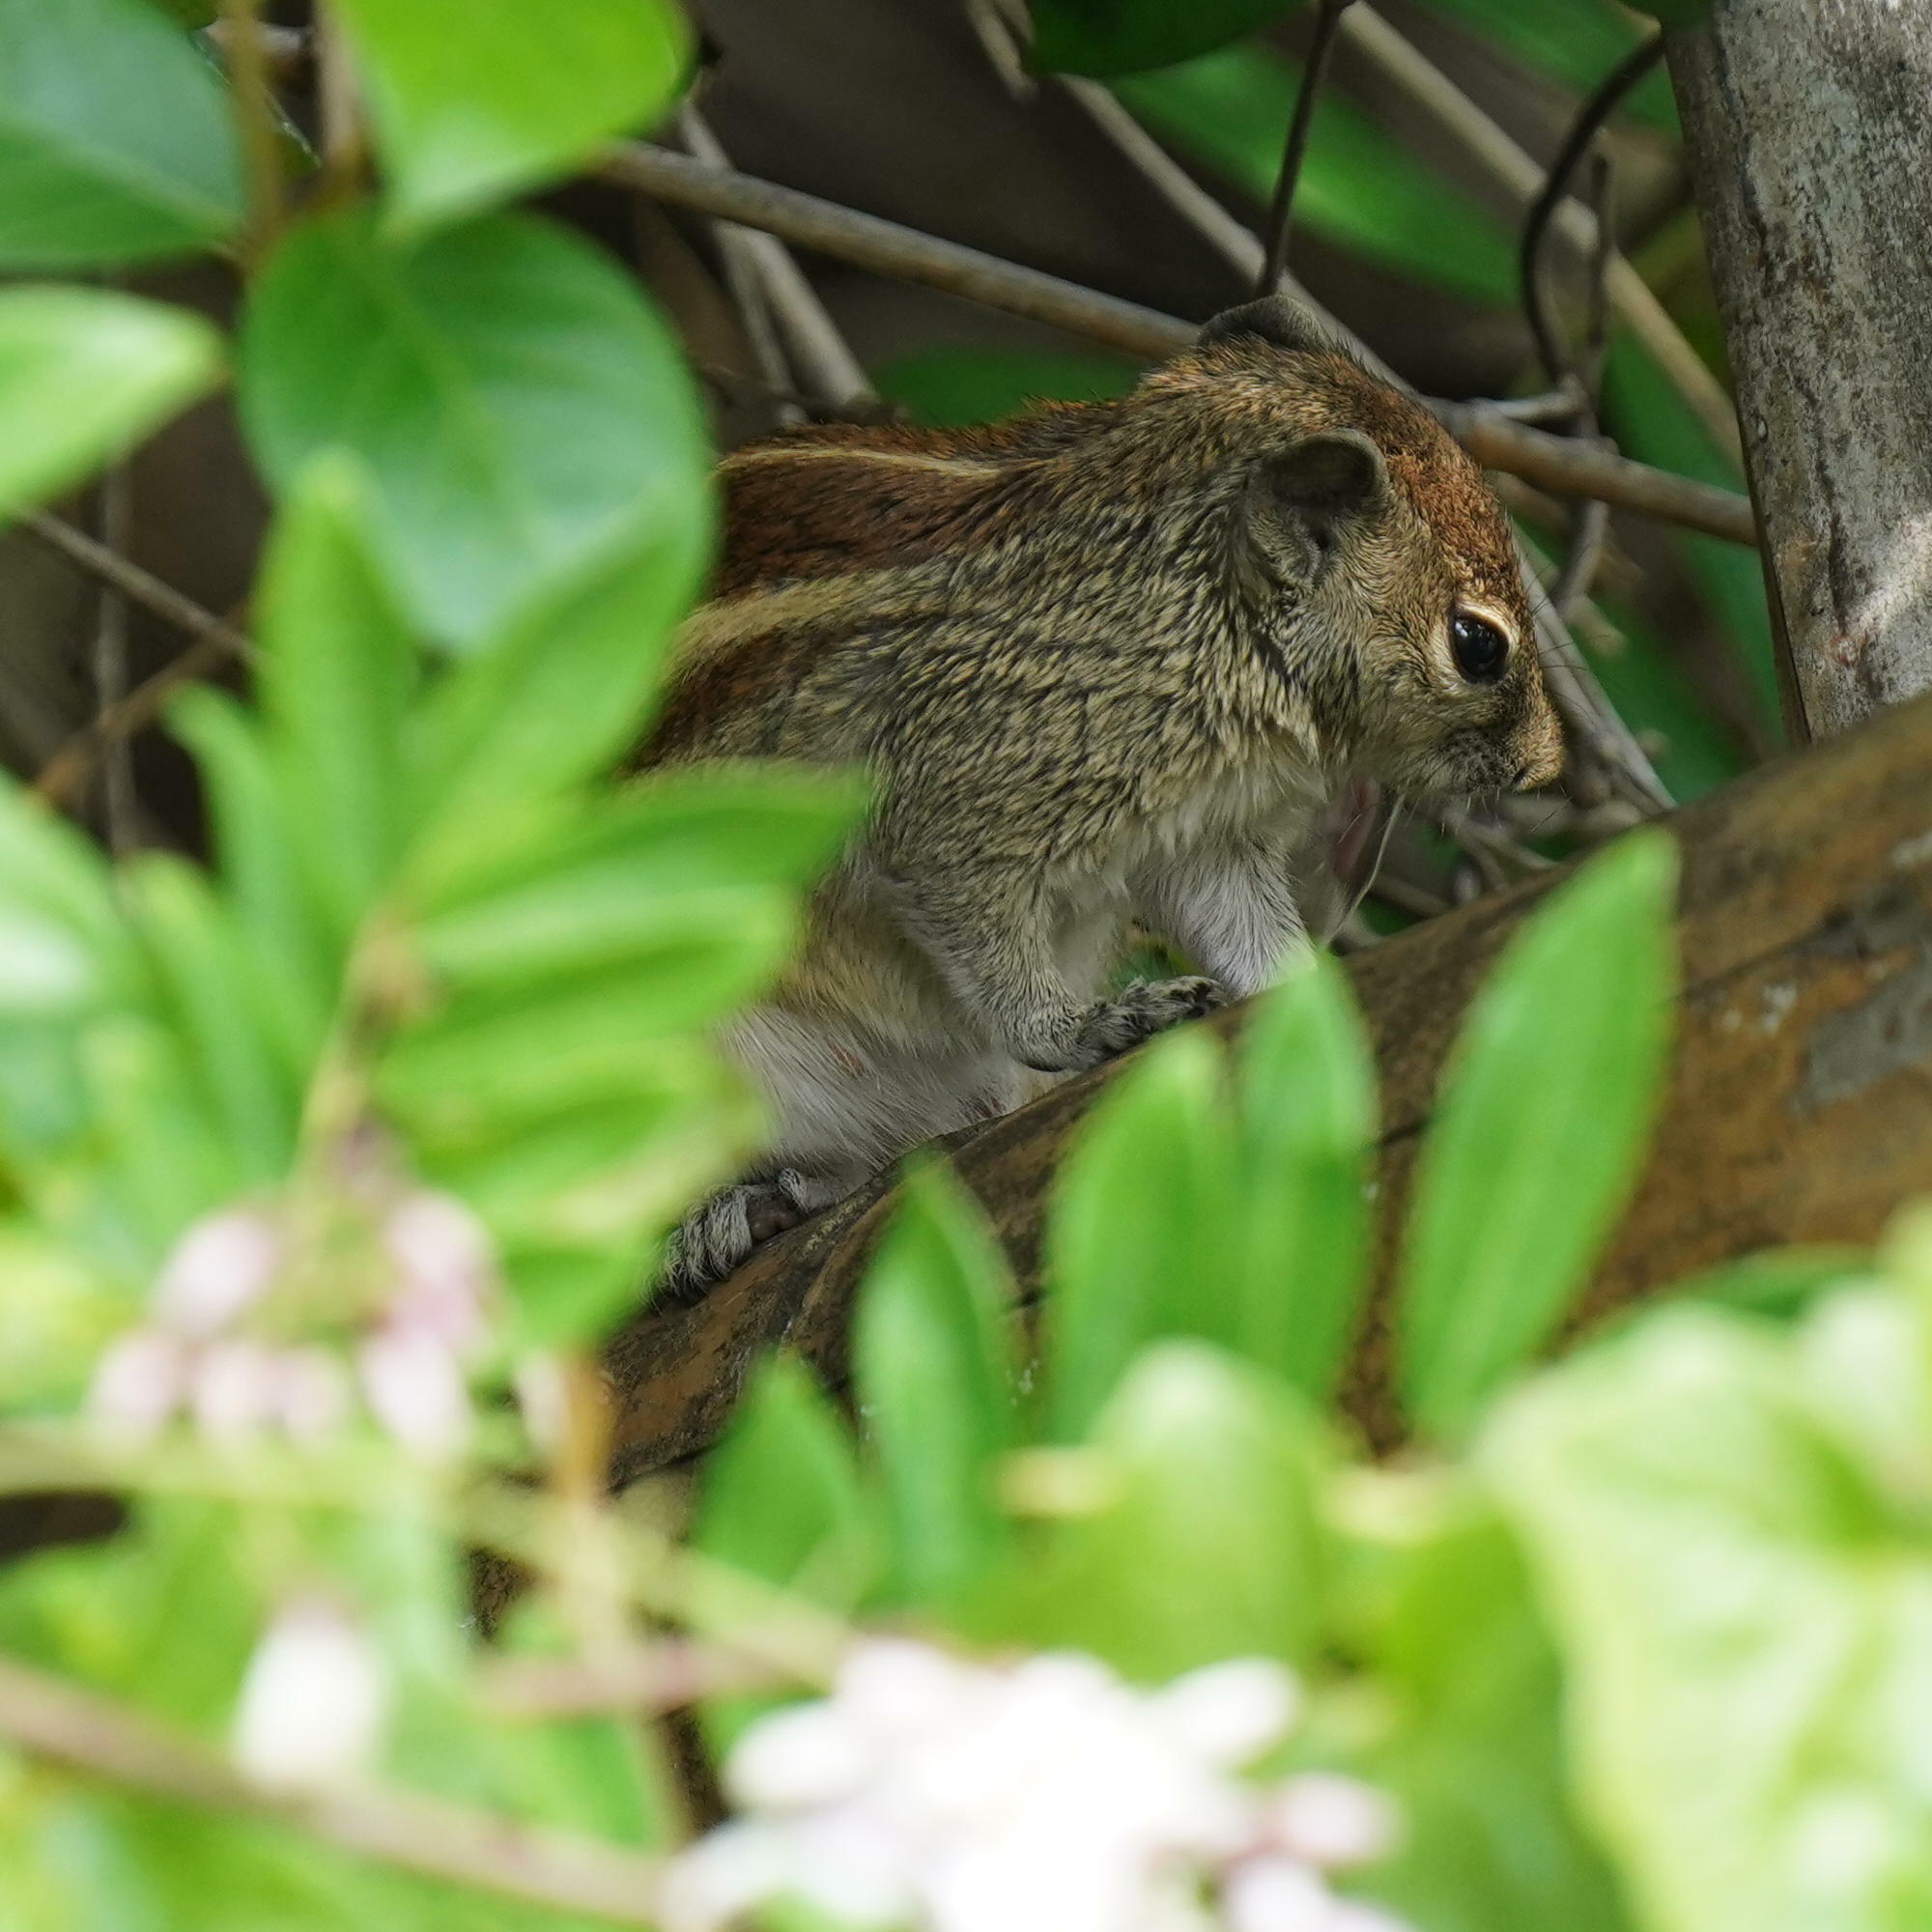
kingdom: Animalia
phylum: Chordata
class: Mammalia
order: Rodentia
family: Sciuridae
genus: Funambulus
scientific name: Funambulus palmarum
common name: Indian palm squirrel
